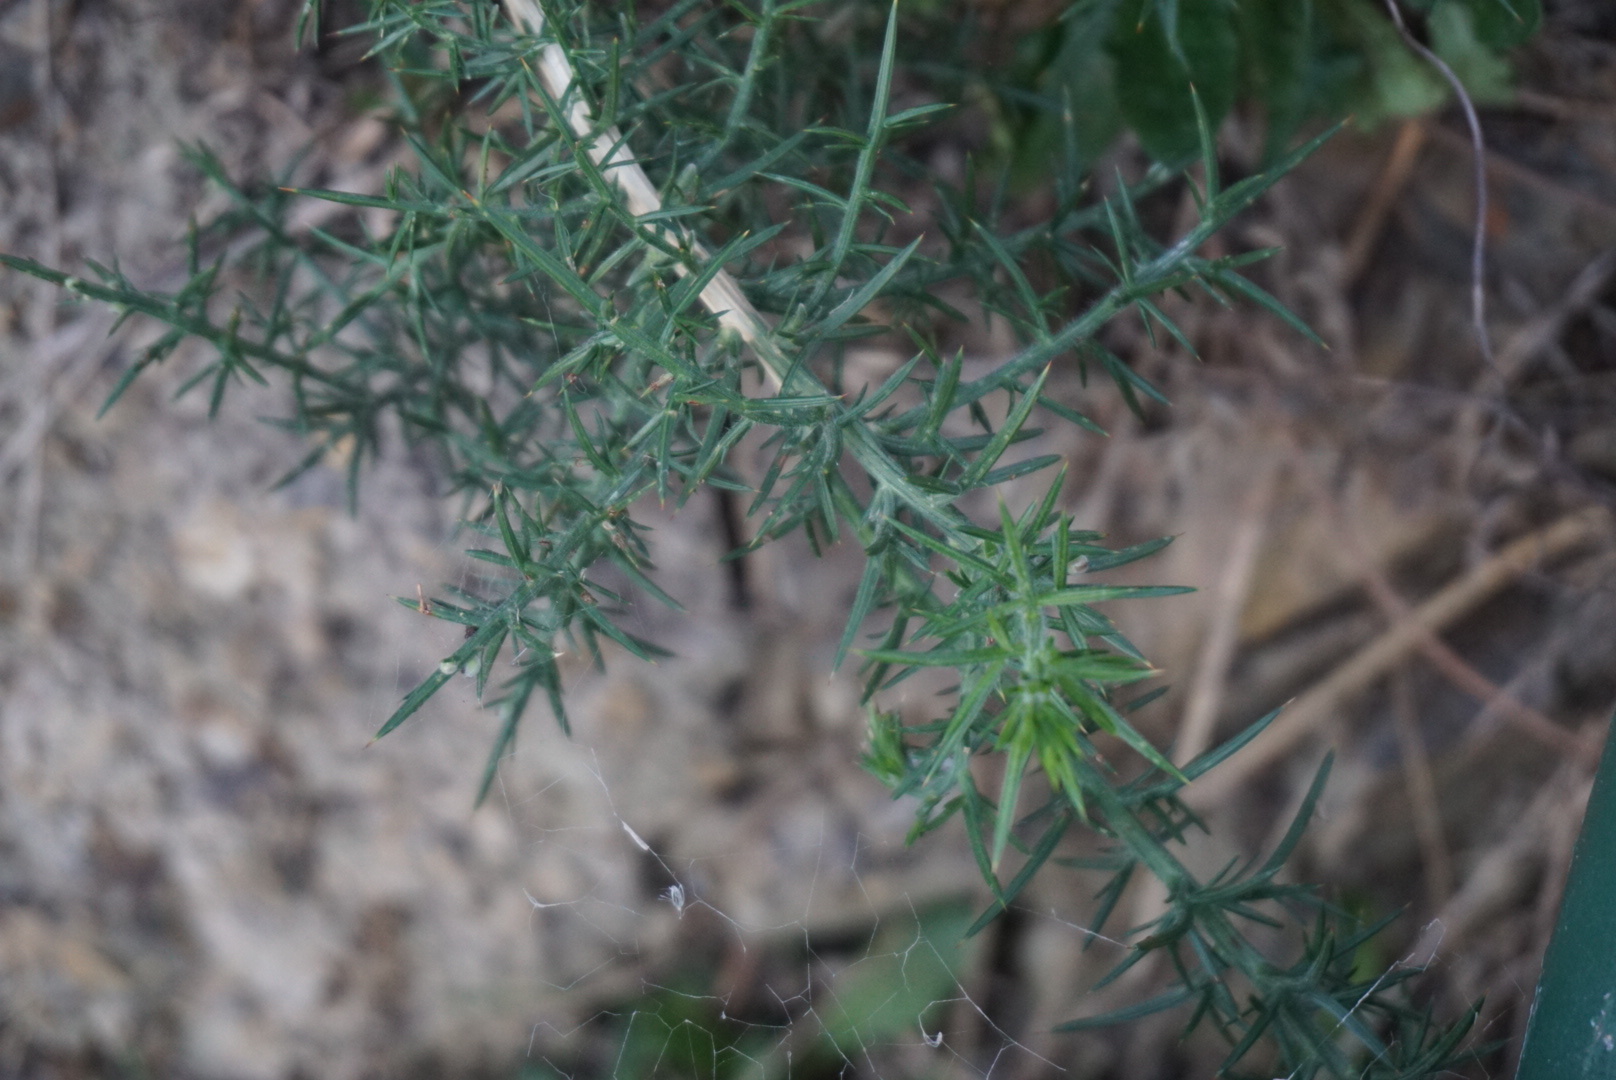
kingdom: Plantae
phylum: Tracheophyta
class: Magnoliopsida
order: Fabales
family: Fabaceae
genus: Ulex
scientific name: Ulex europaeus
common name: Common gorse
